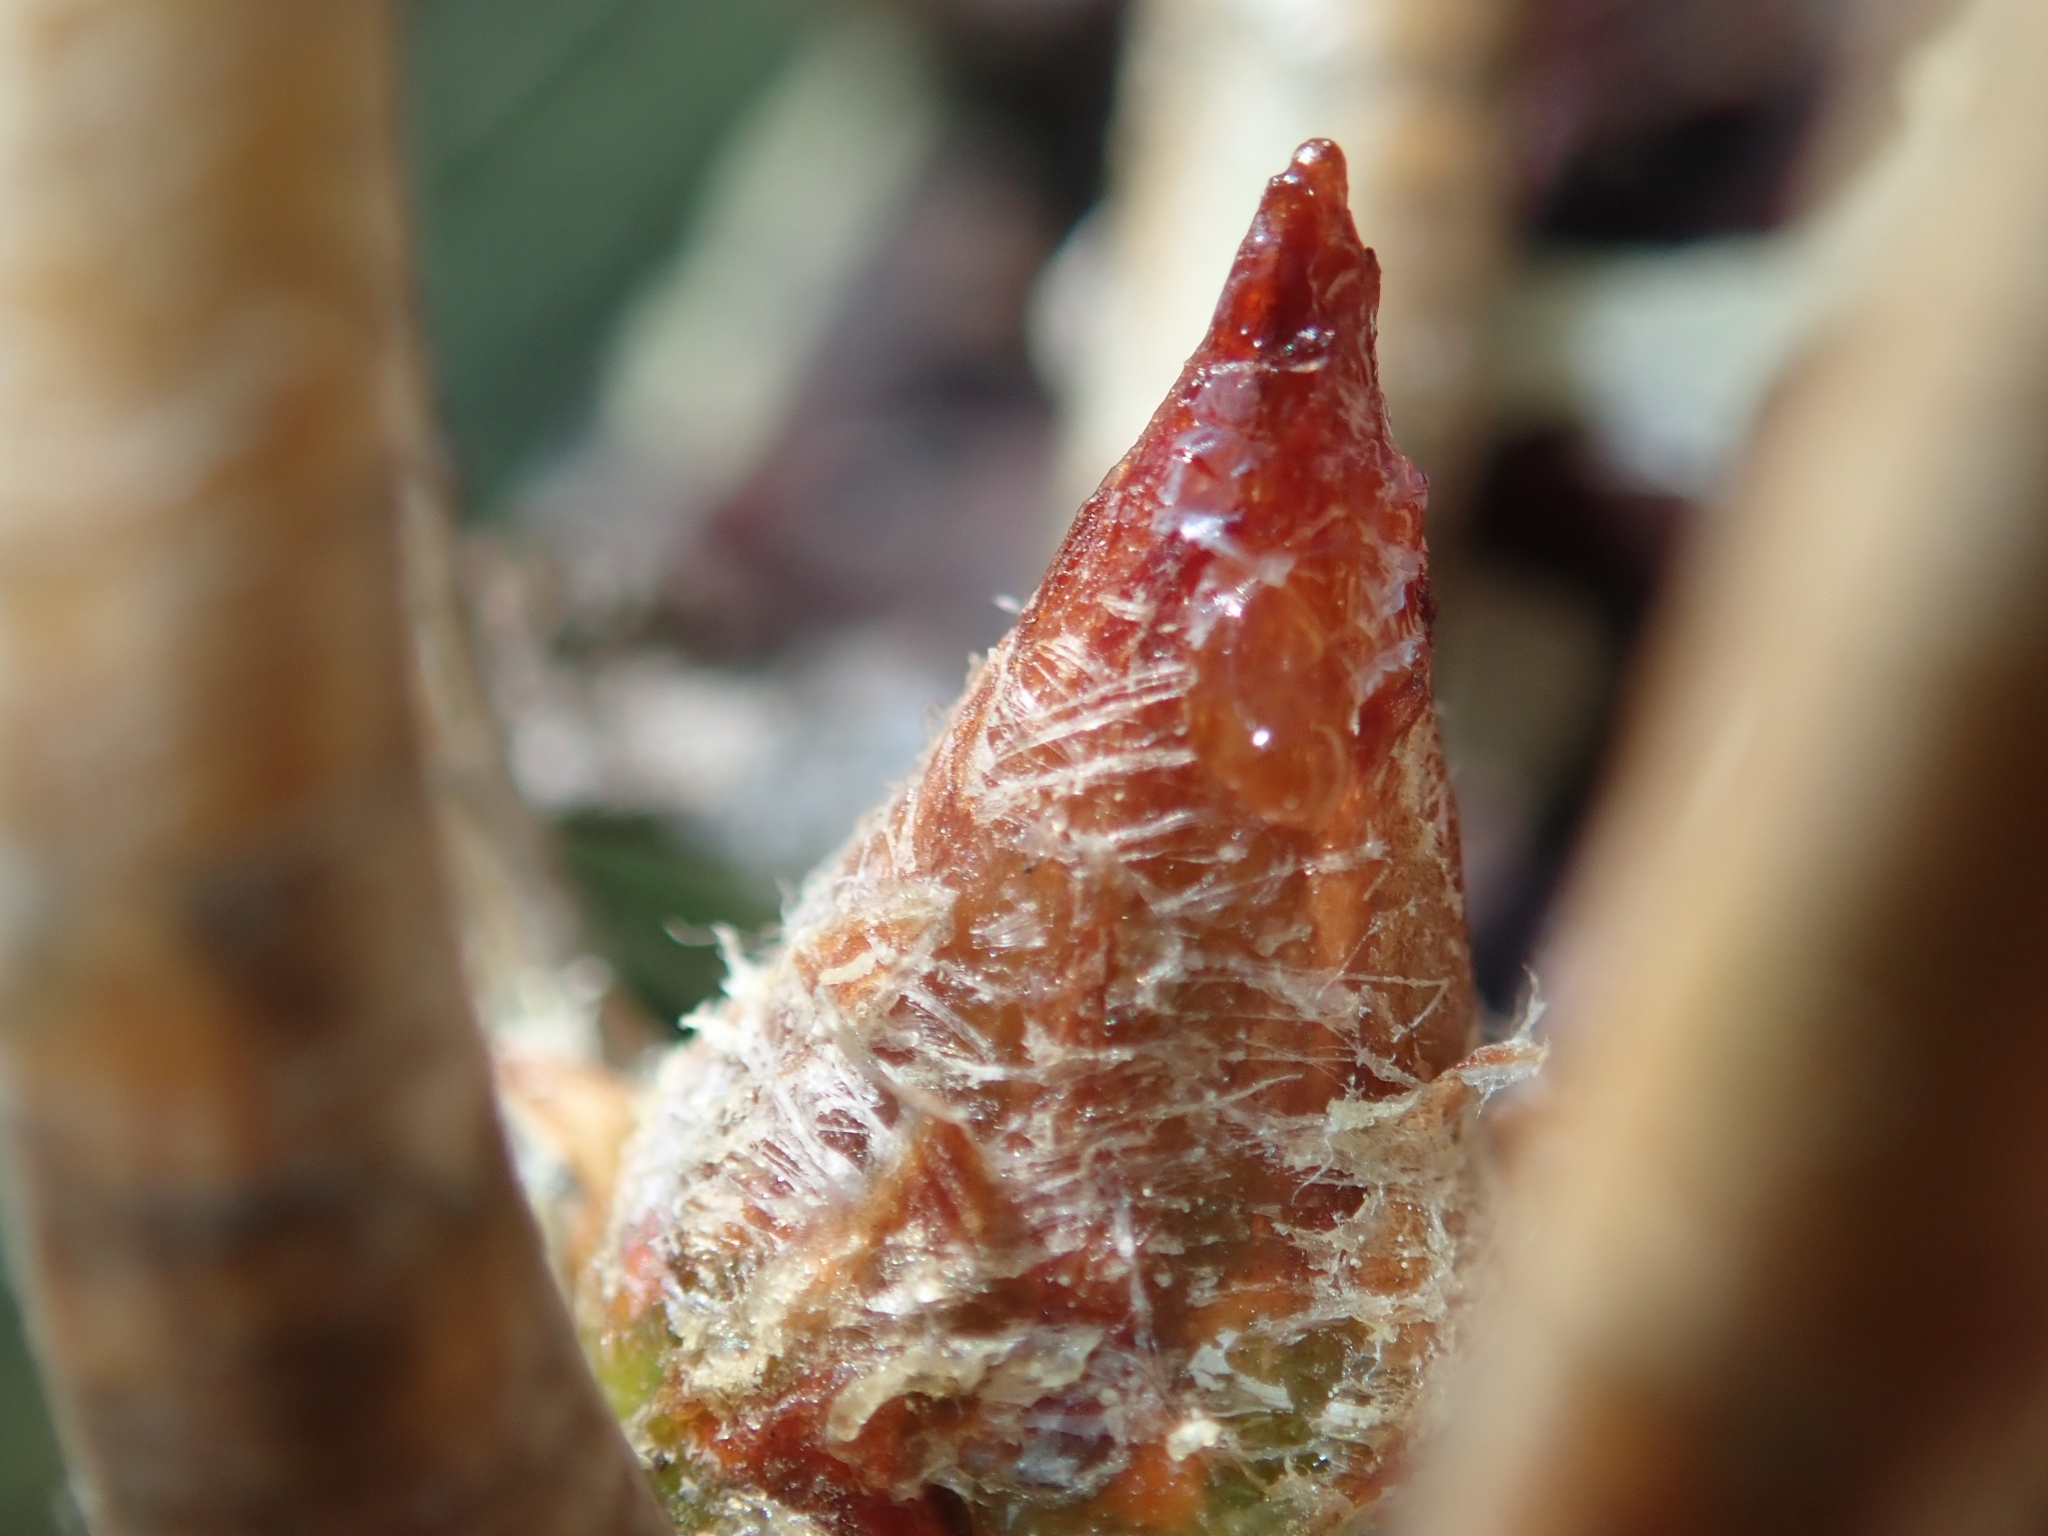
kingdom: Plantae
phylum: Tracheophyta
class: Pinopsida
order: Pinales
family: Pinaceae
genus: Pinus
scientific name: Pinus torreyana
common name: Torrey pine
